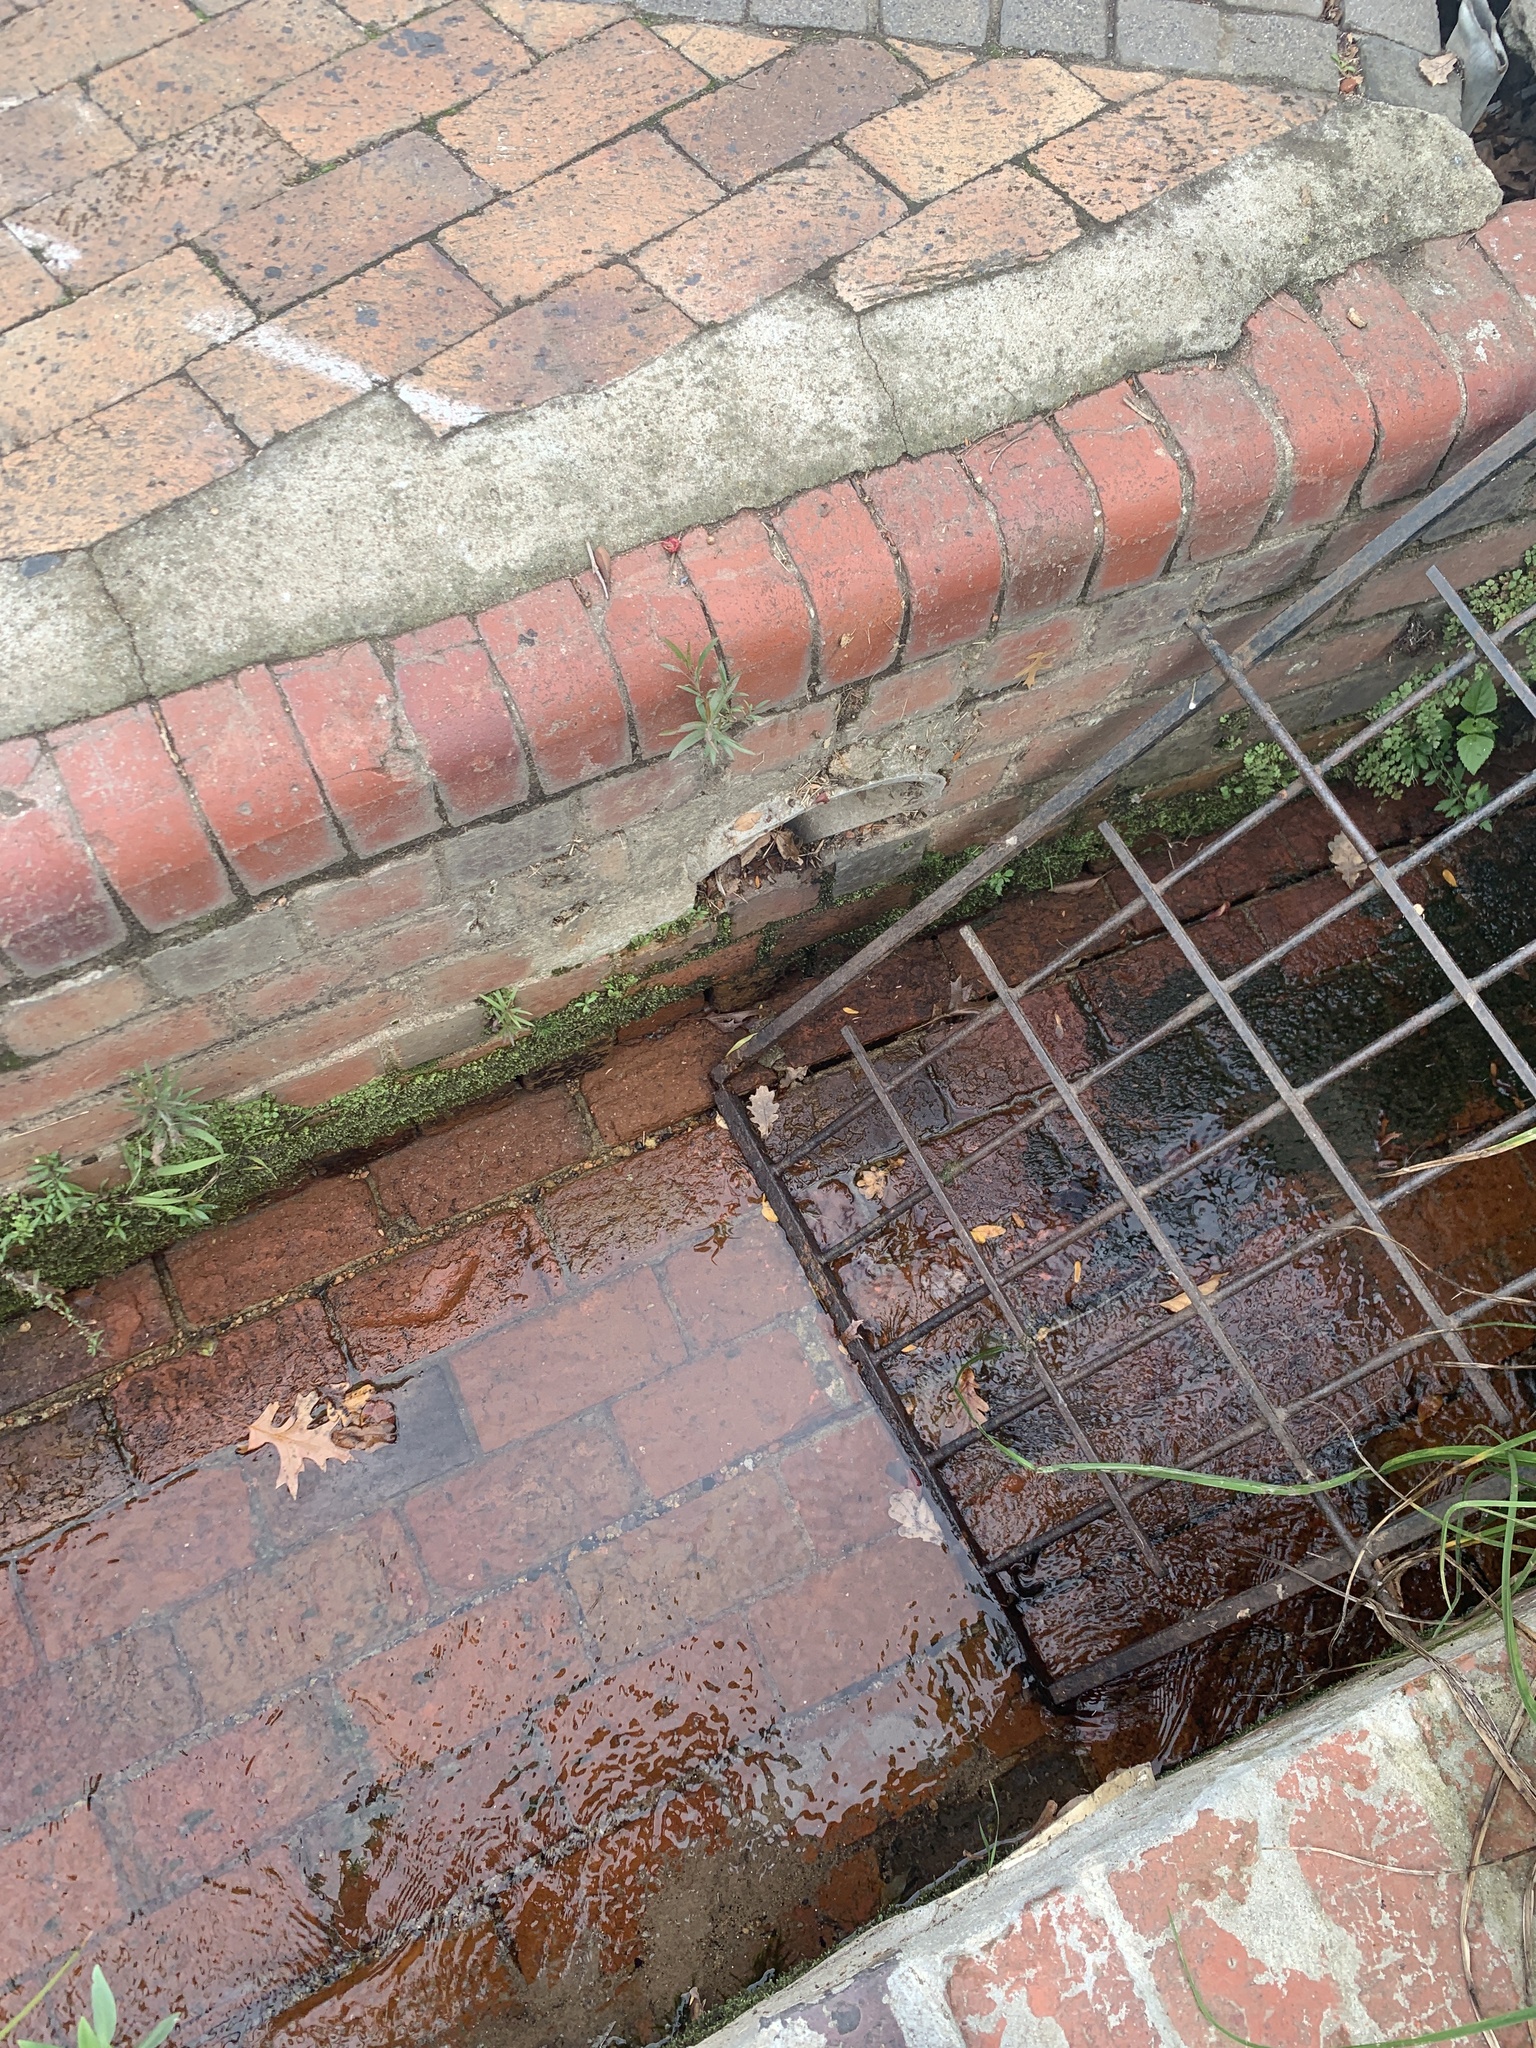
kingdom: Plantae
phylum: Tracheophyta
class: Magnoliopsida
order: Myrtales
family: Myrtaceae
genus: Callistemon
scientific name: Callistemon viminalis
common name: Drooping bottlebrush
